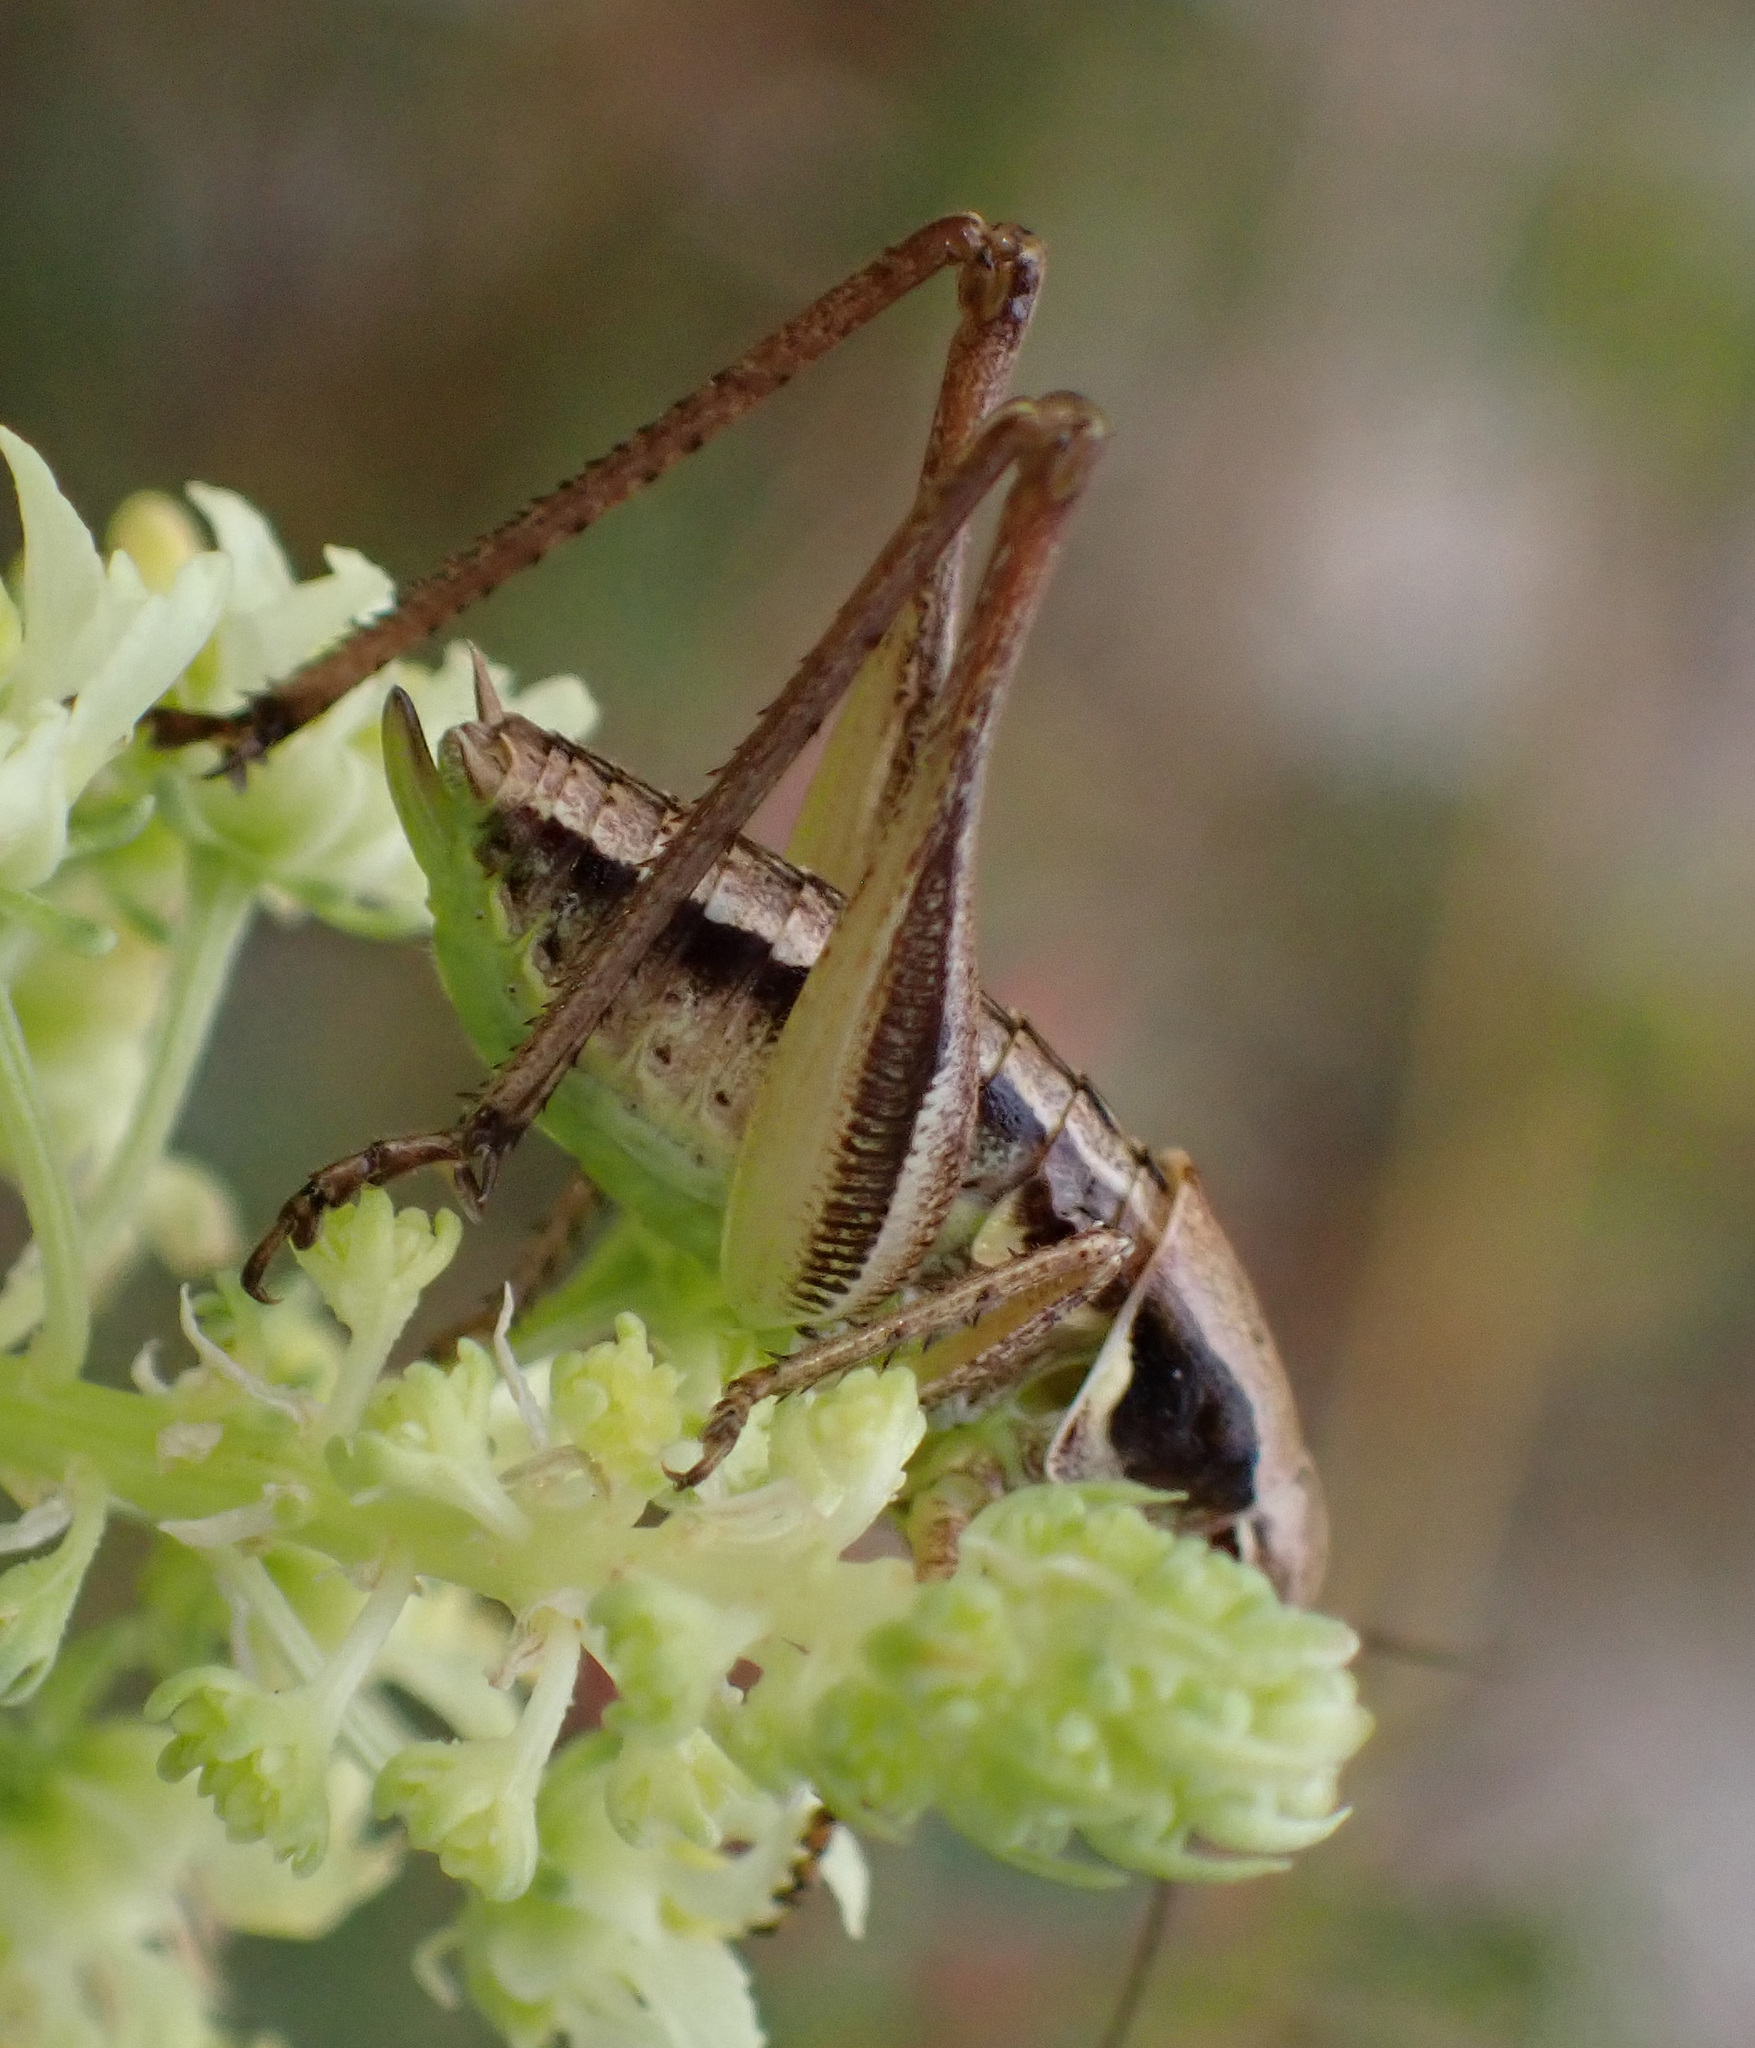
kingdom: Animalia
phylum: Arthropoda
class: Insecta
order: Orthoptera
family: Tettigoniidae
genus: Platycleis
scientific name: Platycleis grisea
